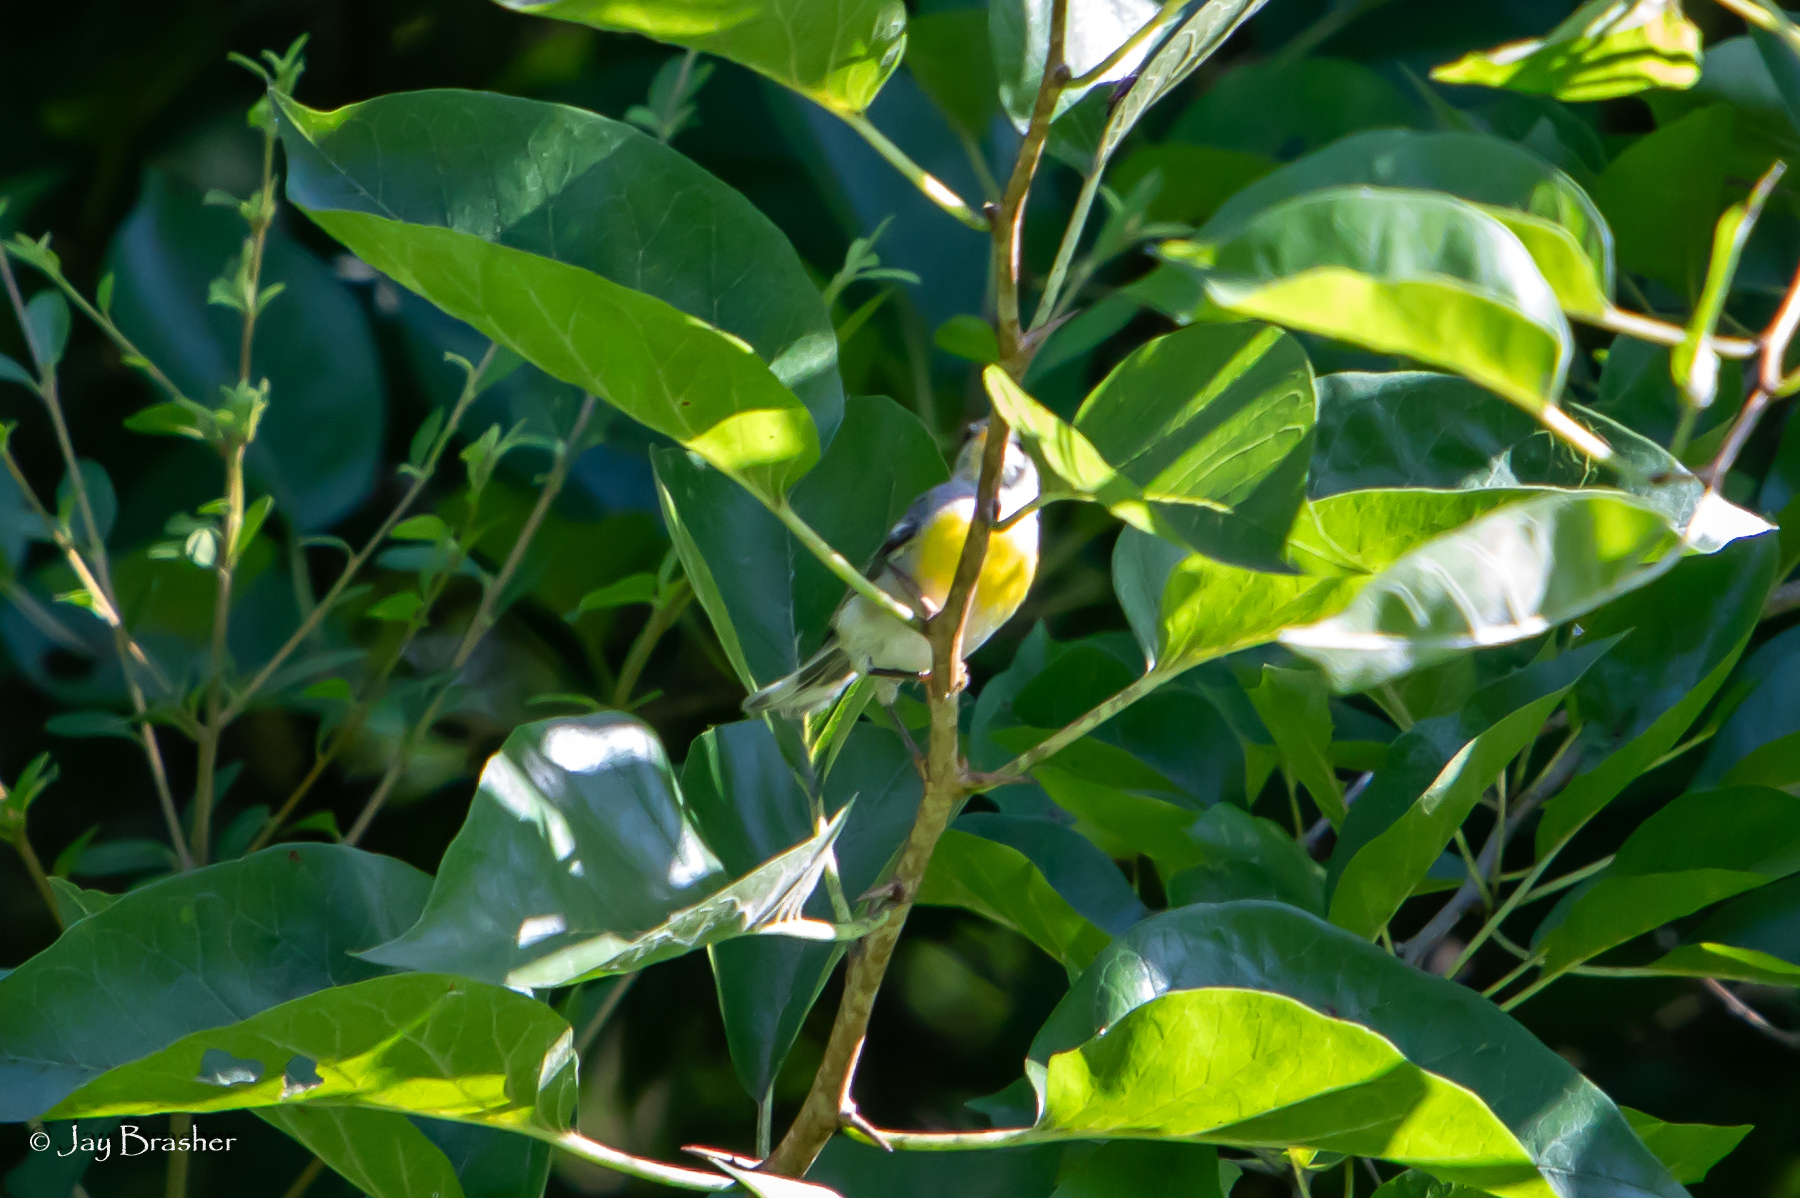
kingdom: Animalia
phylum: Chordata
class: Aves
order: Passeriformes
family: Parulidae
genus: Setophaga
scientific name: Setophaga americana
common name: Northern parula
